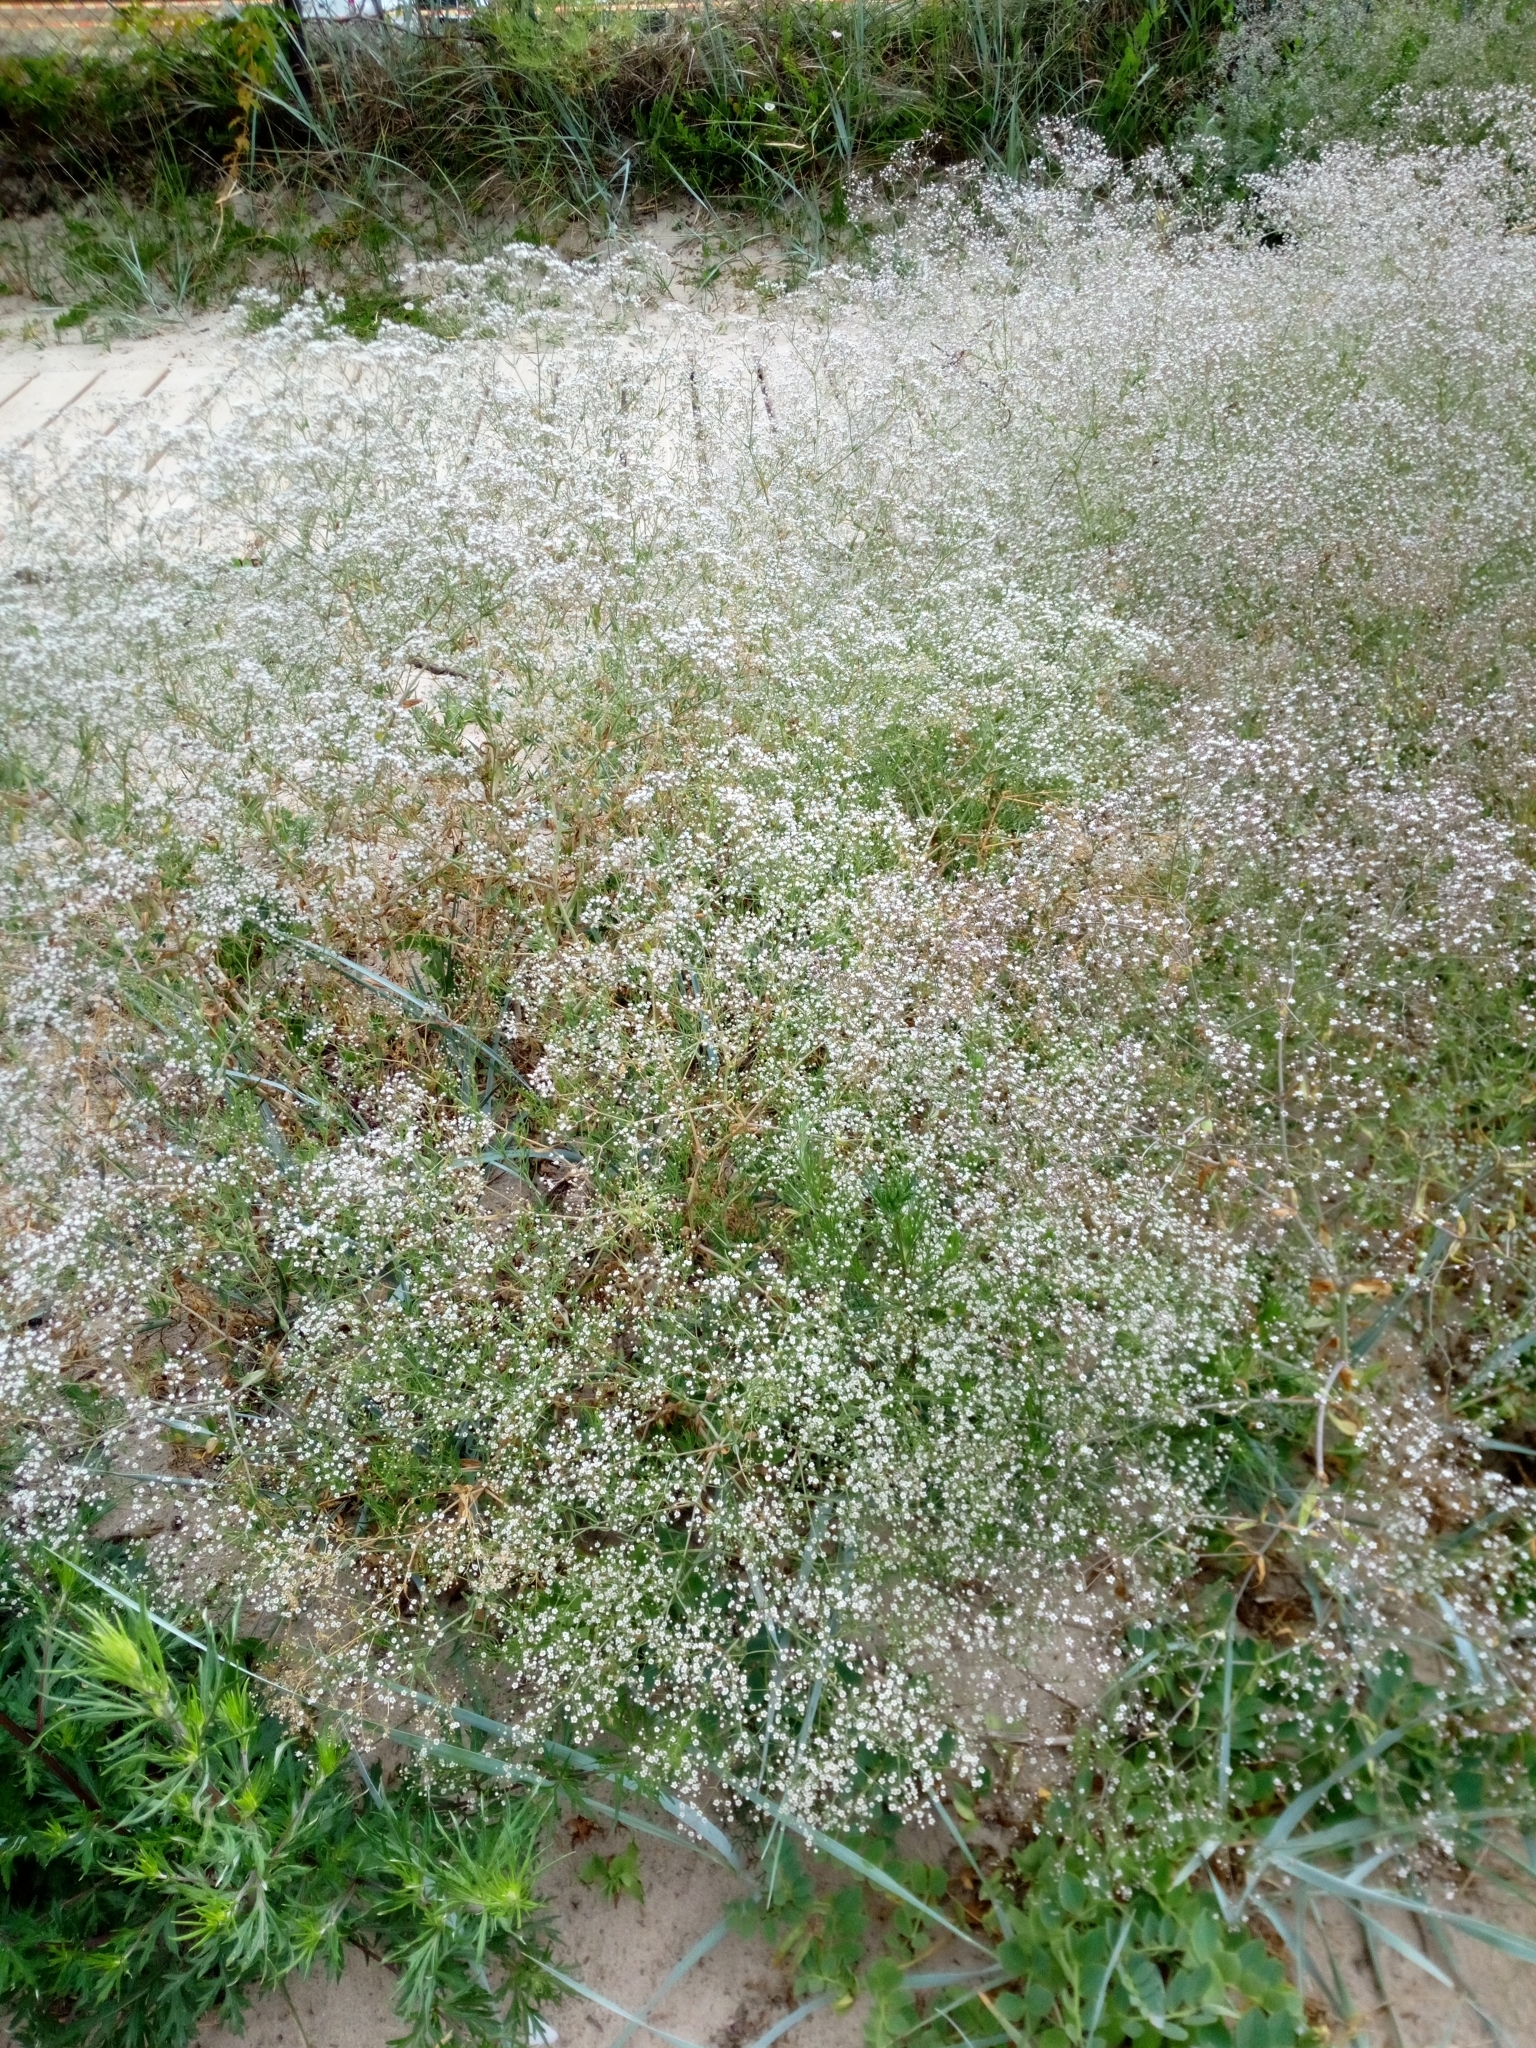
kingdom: Plantae
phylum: Tracheophyta
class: Magnoliopsida
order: Caryophyllales
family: Caryophyllaceae
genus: Gypsophila
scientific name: Gypsophila paniculata
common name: Baby's-breath
